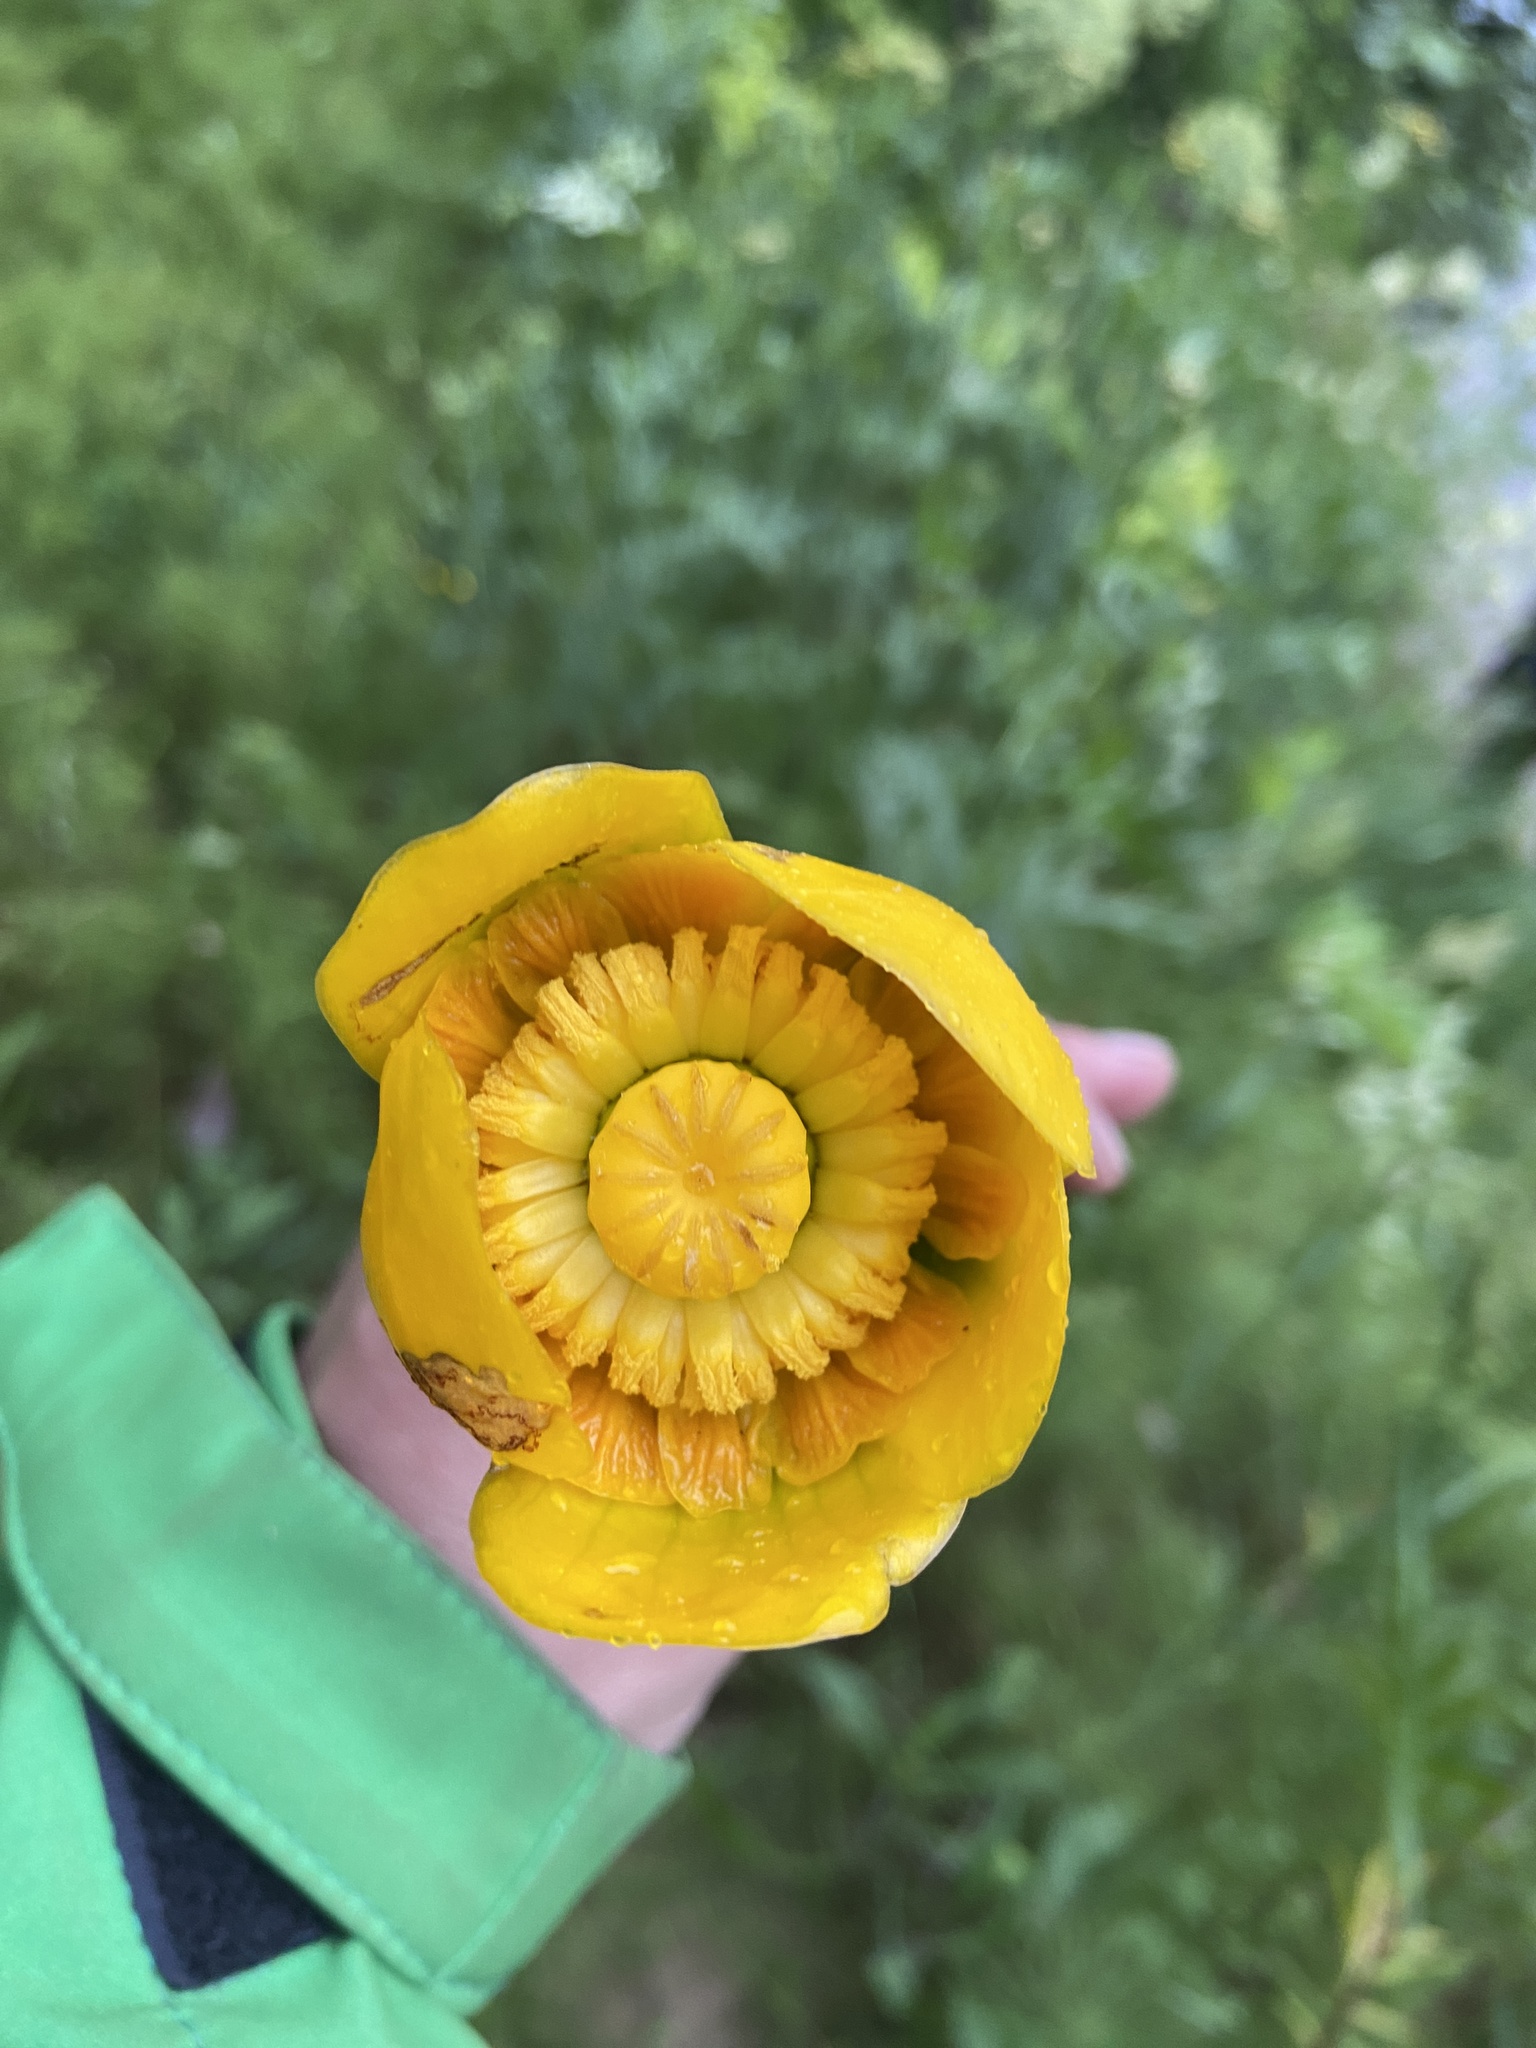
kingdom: Plantae
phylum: Tracheophyta
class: Magnoliopsida
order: Nymphaeales
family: Nymphaeaceae
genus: Nuphar
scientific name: Nuphar lutea
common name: Yellow water-lily
